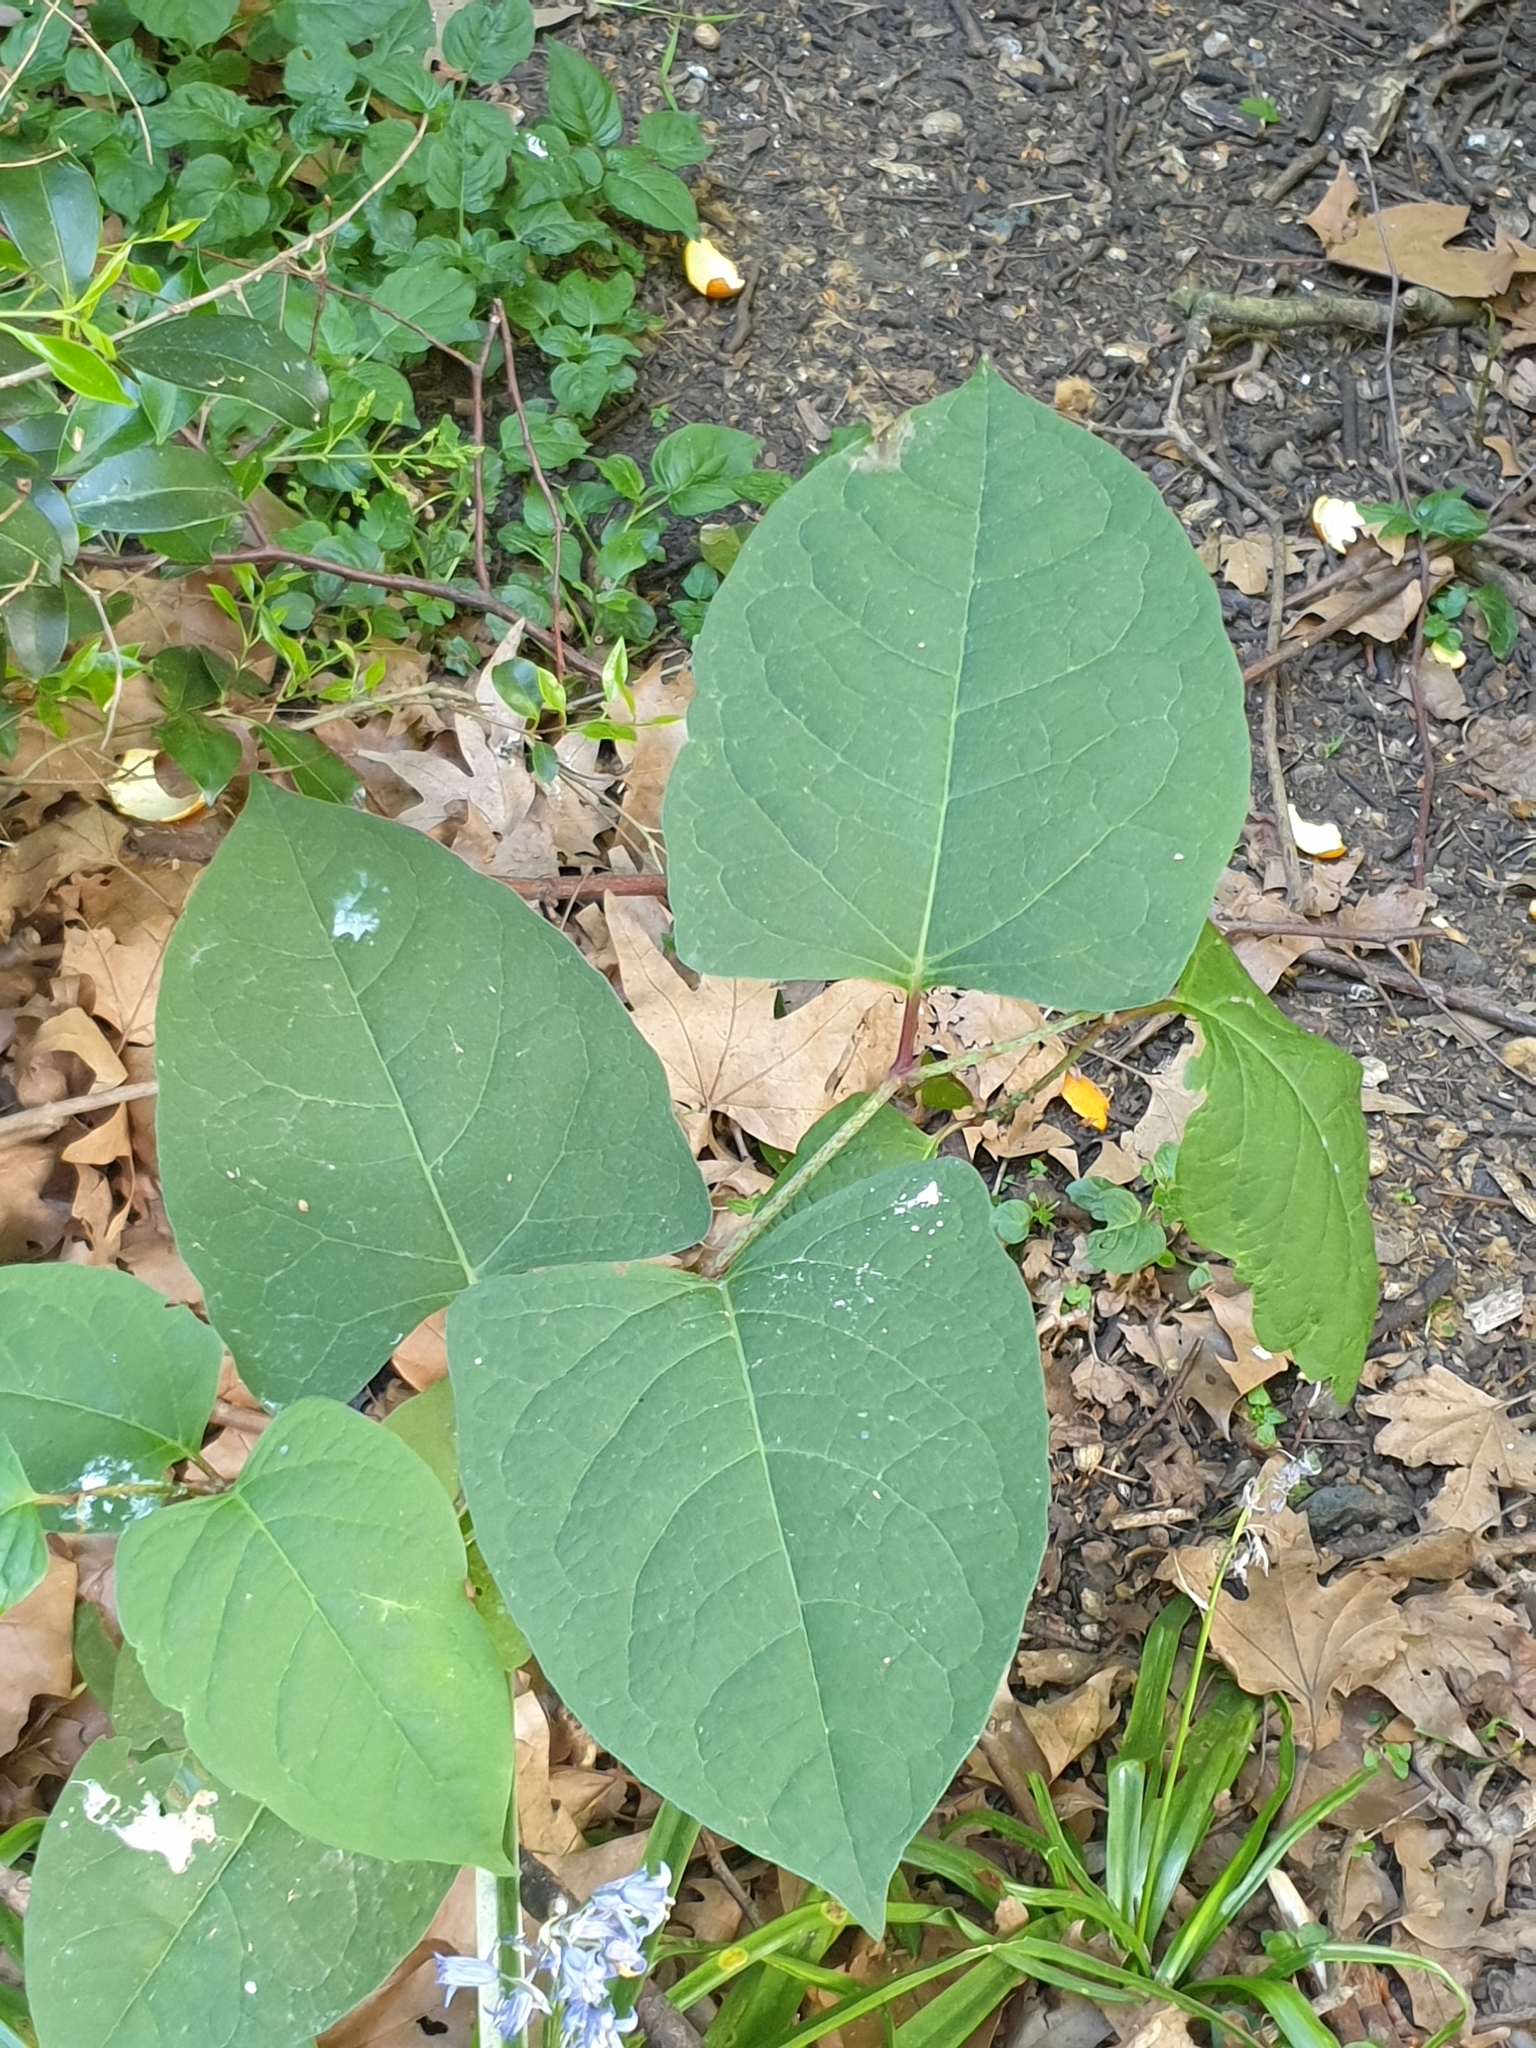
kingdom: Plantae
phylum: Tracheophyta
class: Magnoliopsida
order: Caryophyllales
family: Polygonaceae
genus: Reynoutria
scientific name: Reynoutria japonica
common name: Japanese knotweed
